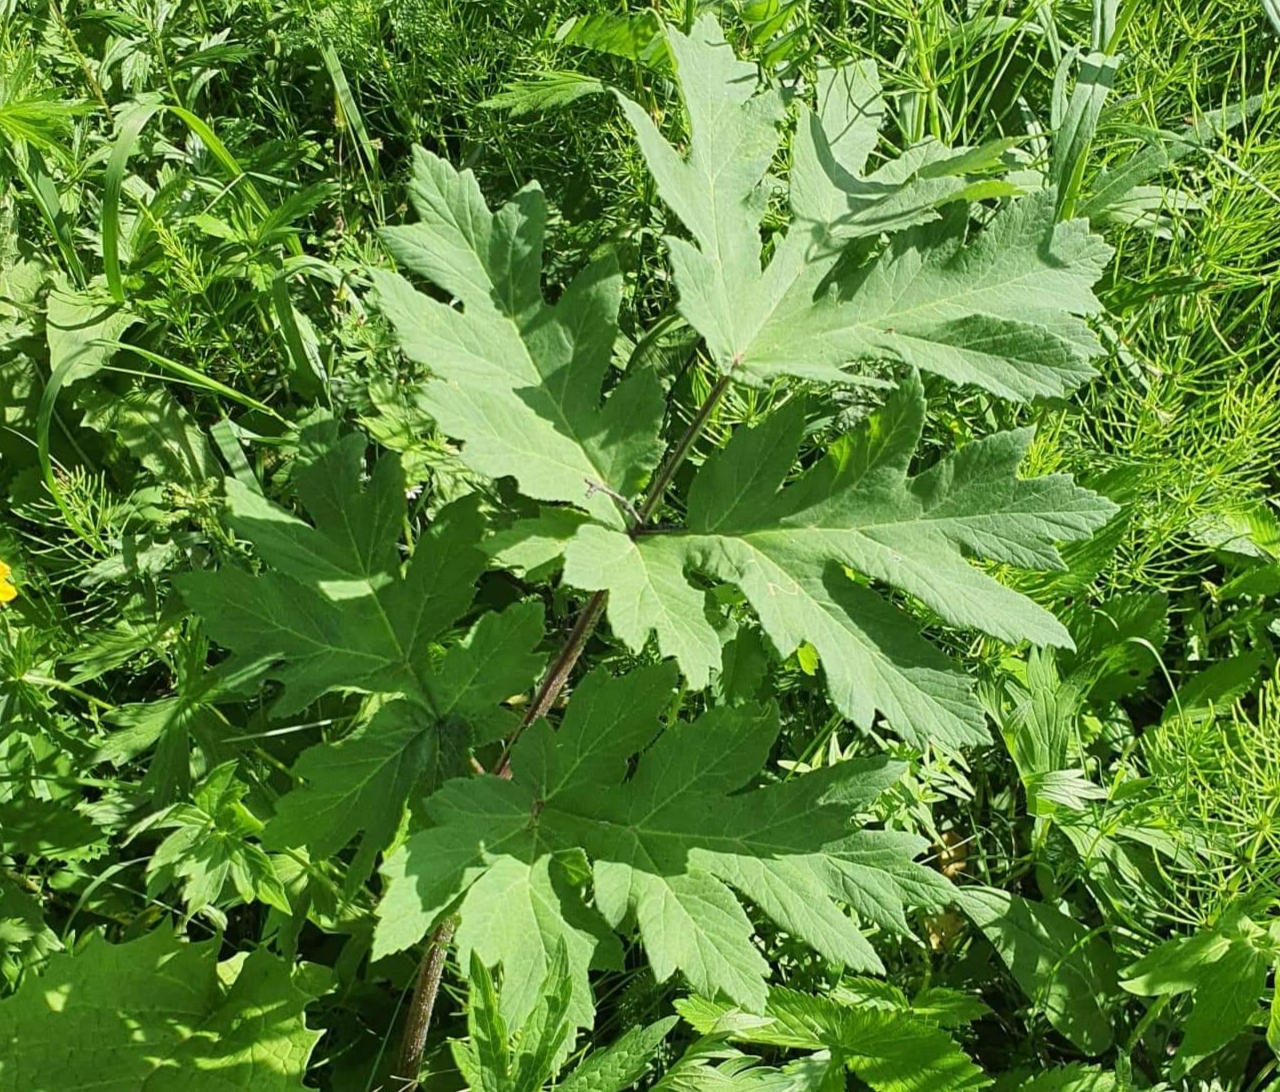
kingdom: Plantae
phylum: Tracheophyta
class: Magnoliopsida
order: Apiales
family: Apiaceae
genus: Heracleum
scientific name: Heracleum dissectum
